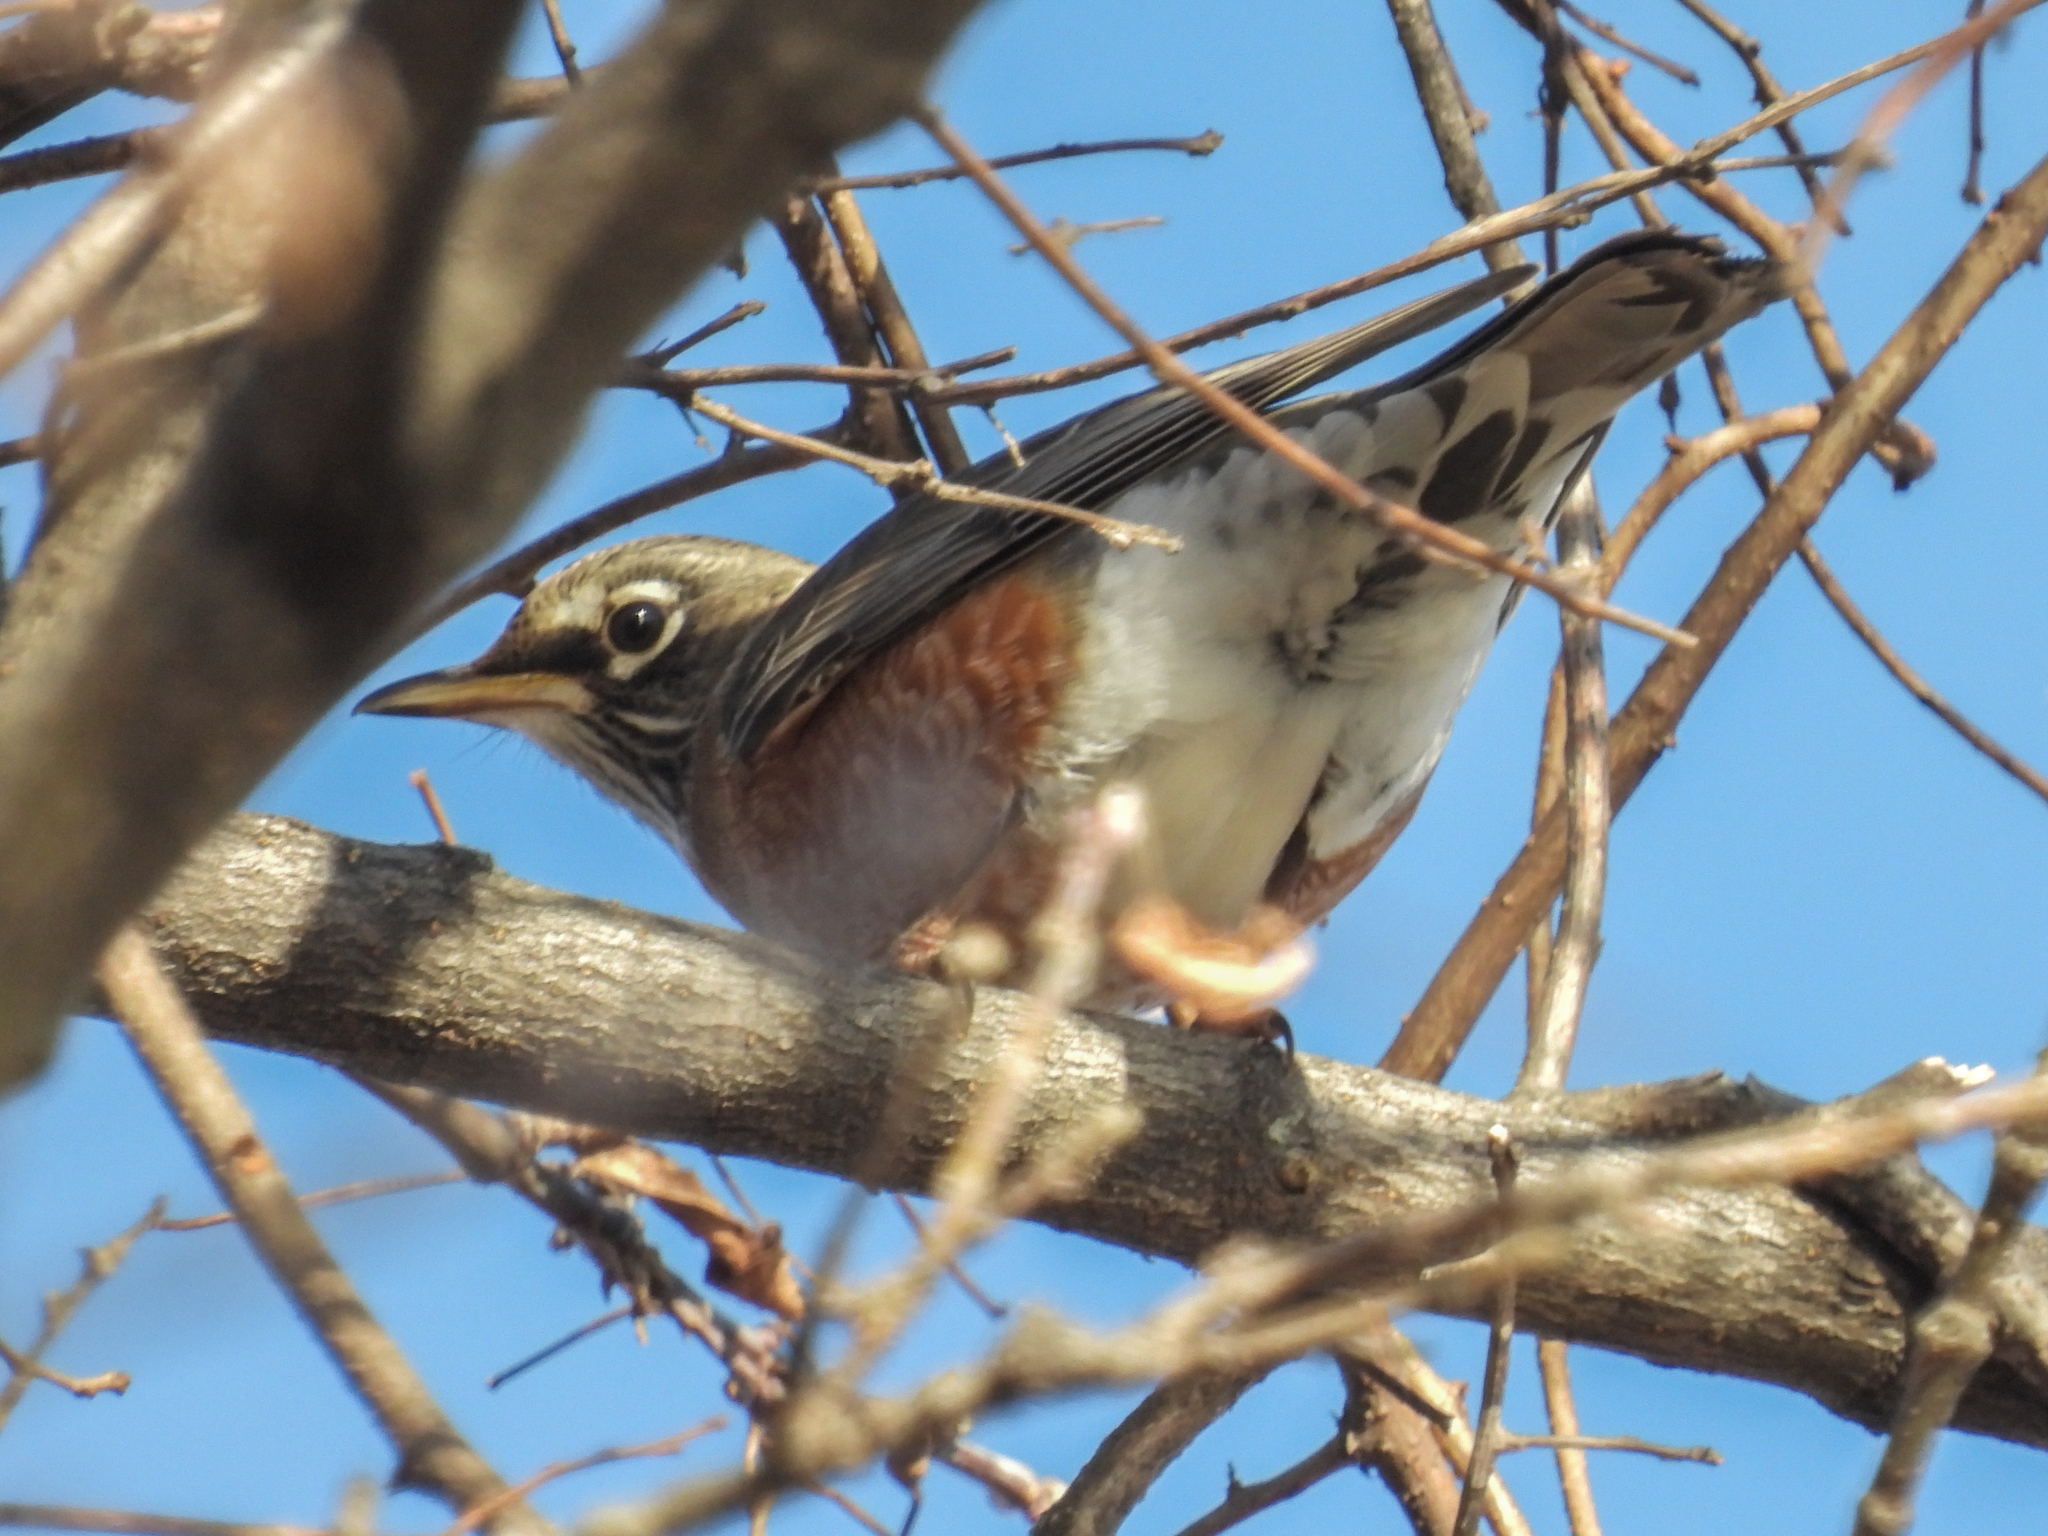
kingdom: Animalia
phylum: Chordata
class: Aves
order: Passeriformes
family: Turdidae
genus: Turdus
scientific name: Turdus migratorius
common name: American robin
